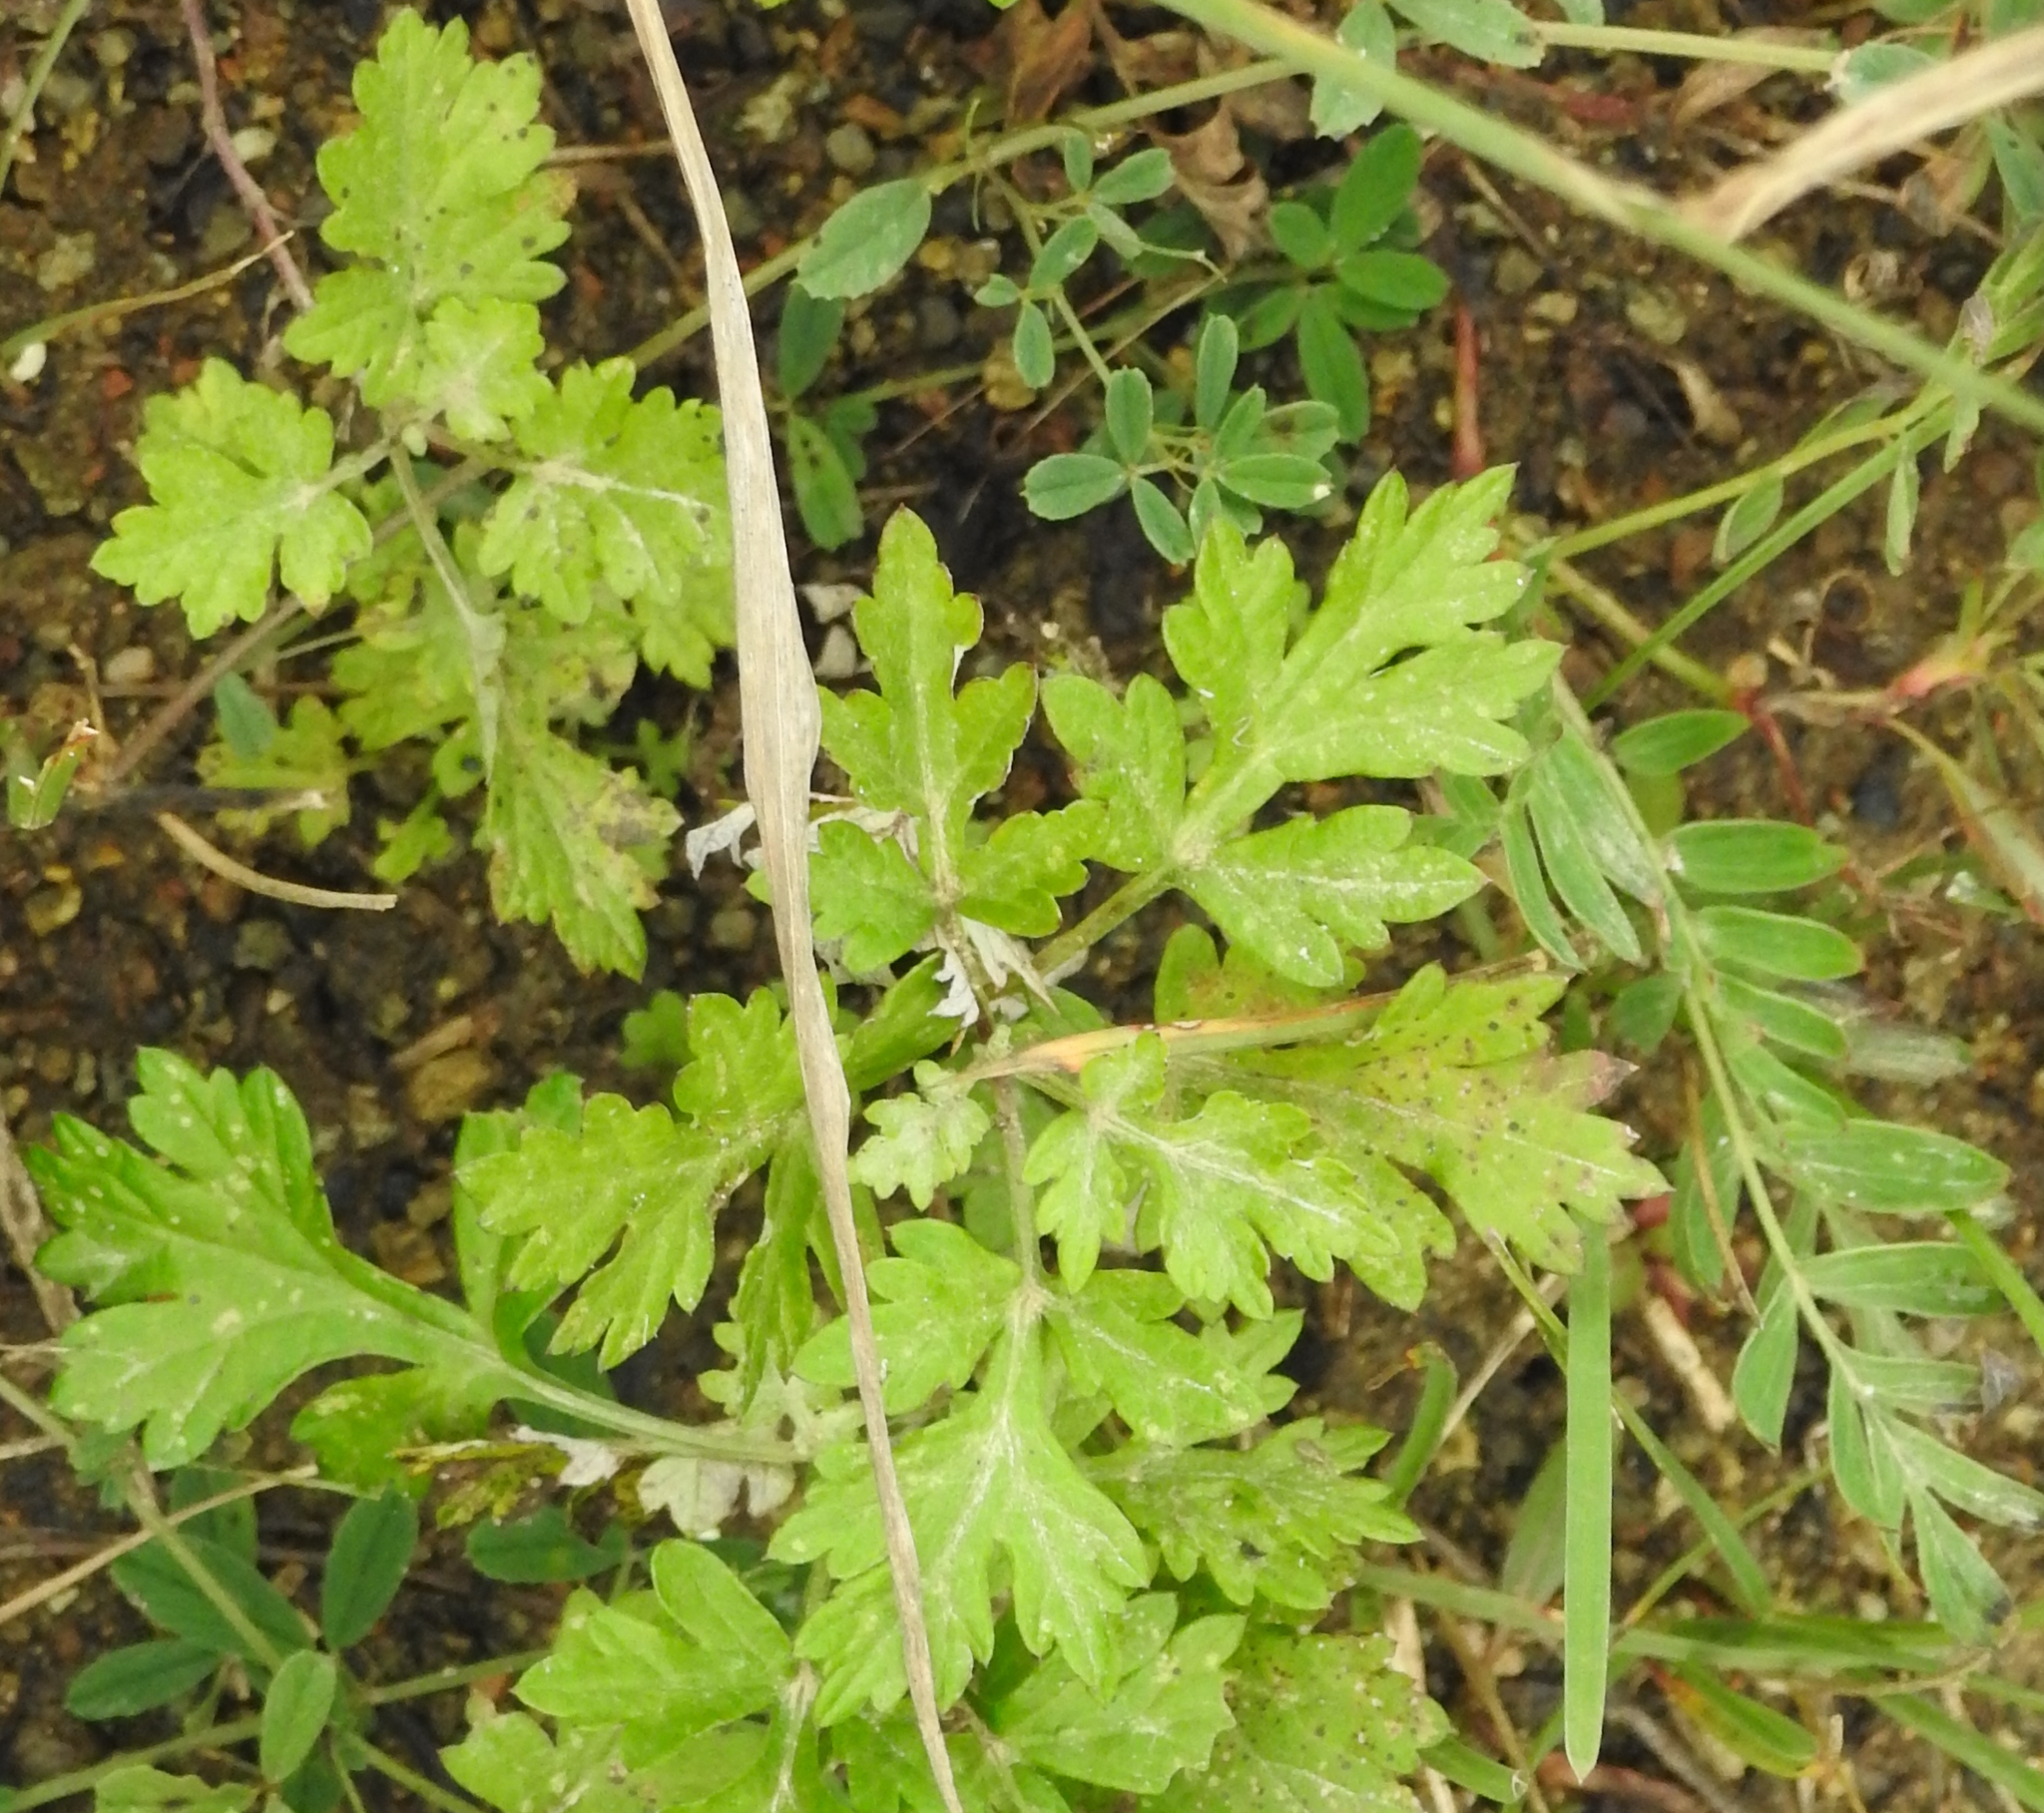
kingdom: Plantae
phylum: Tracheophyta
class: Magnoliopsida
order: Asterales
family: Asteraceae
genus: Artemisia
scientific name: Artemisia vulgaris
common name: Mugwort
